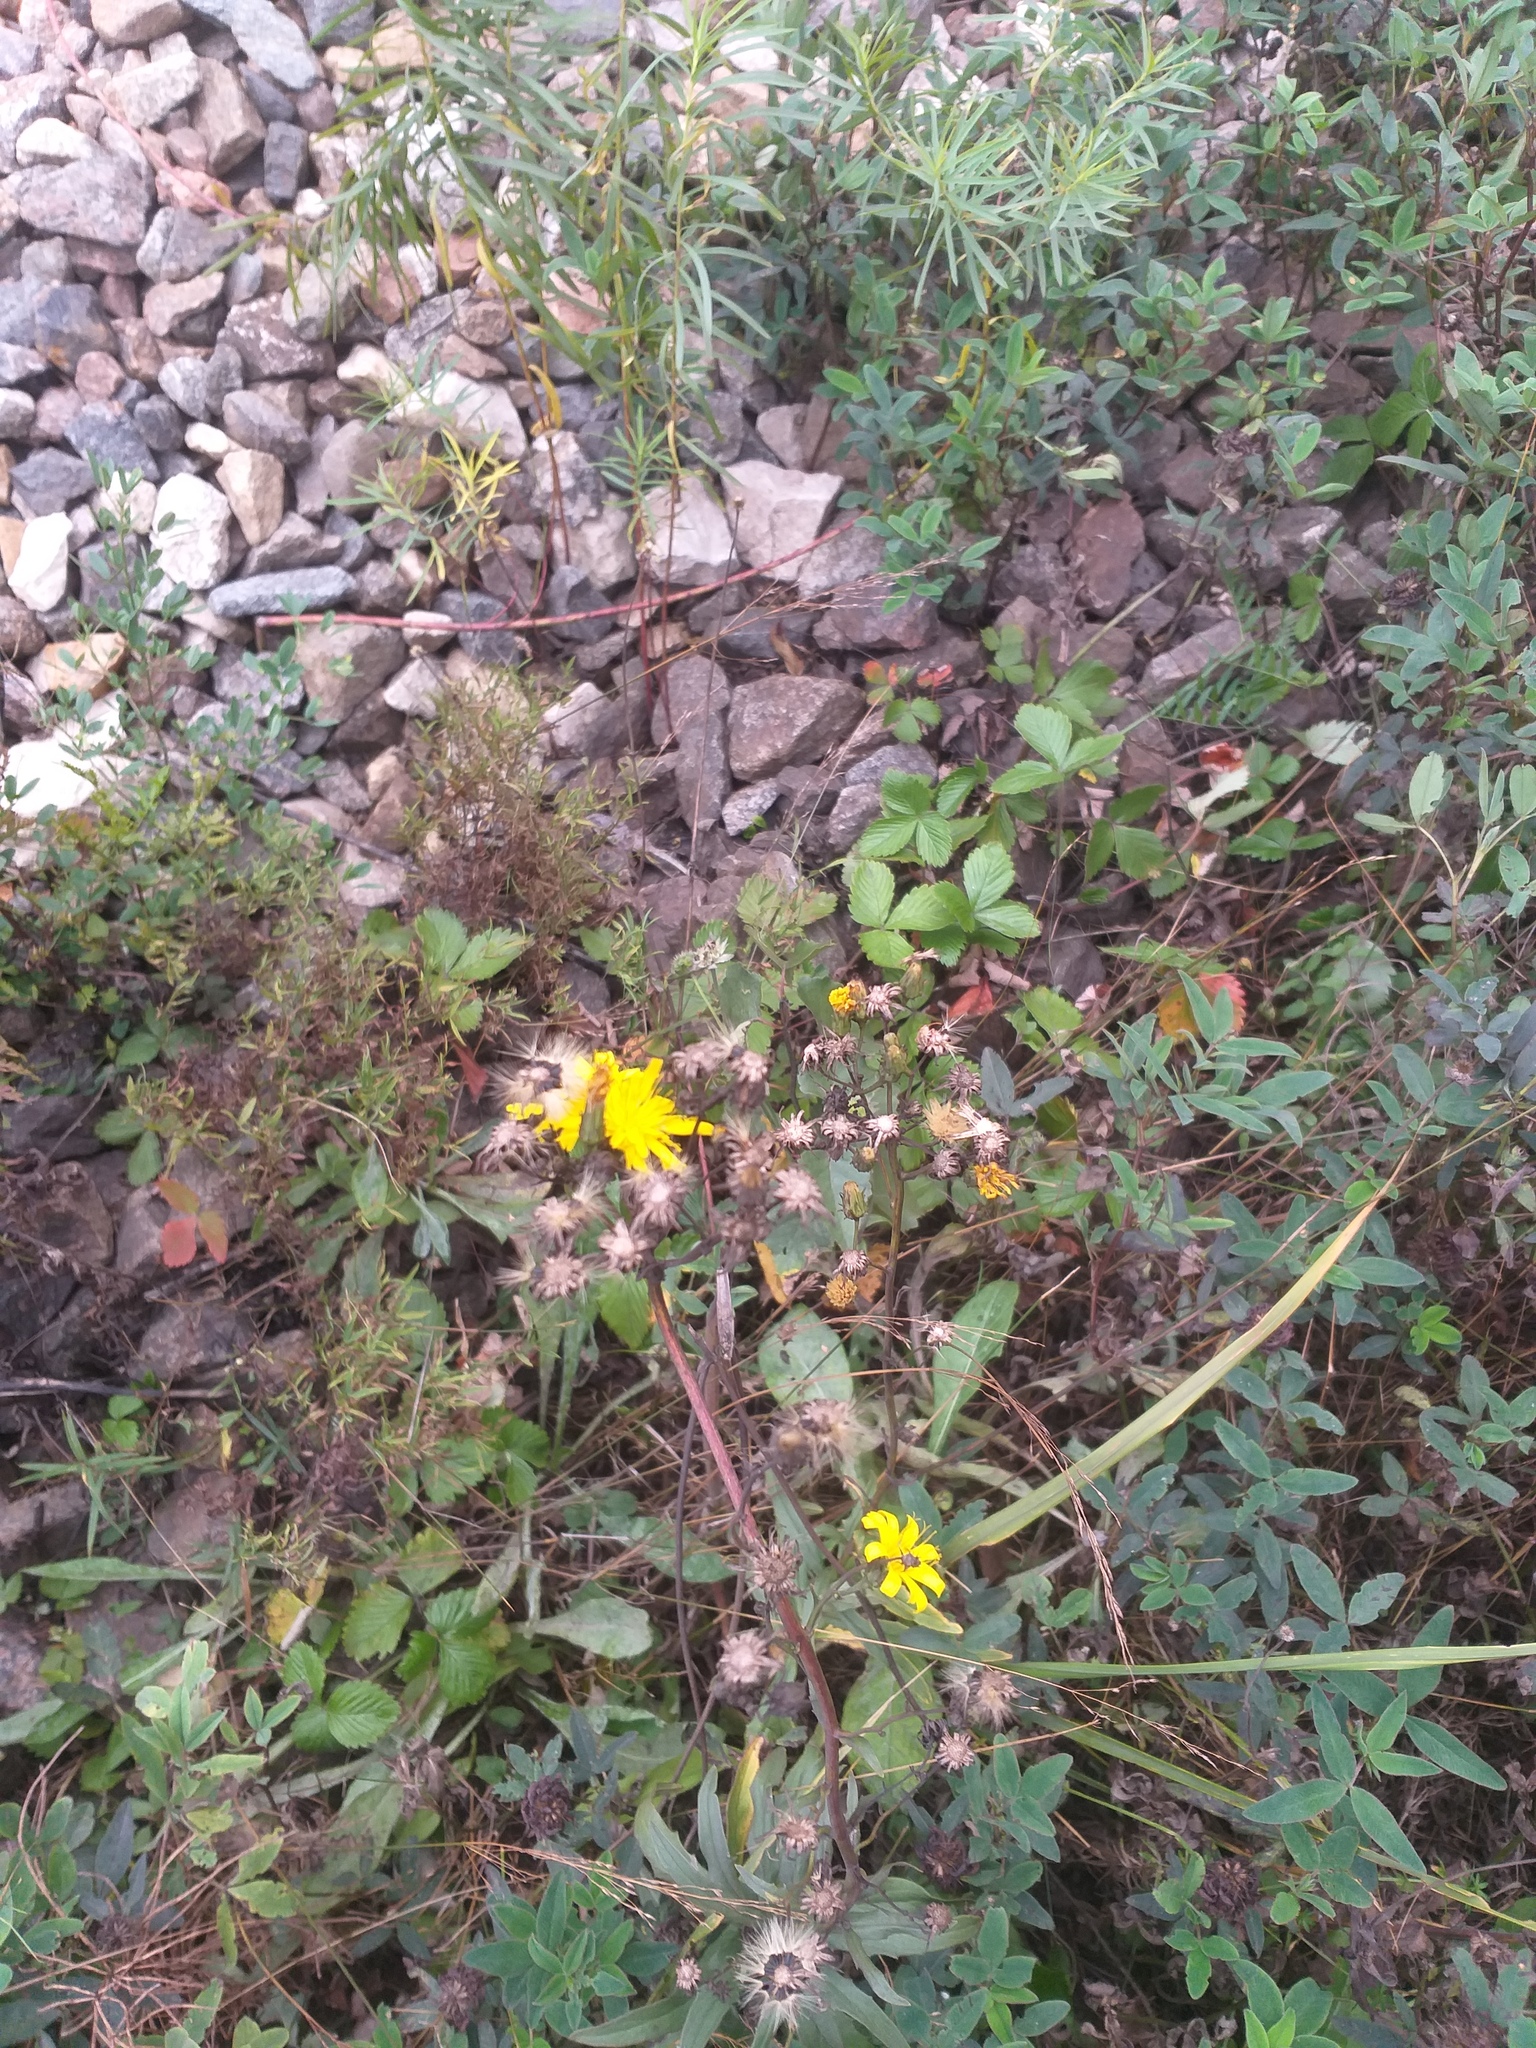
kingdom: Plantae
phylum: Tracheophyta
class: Magnoliopsida
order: Asterales
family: Asteraceae
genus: Hieracium
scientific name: Hieracium umbellatum
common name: Northern hawkweed
